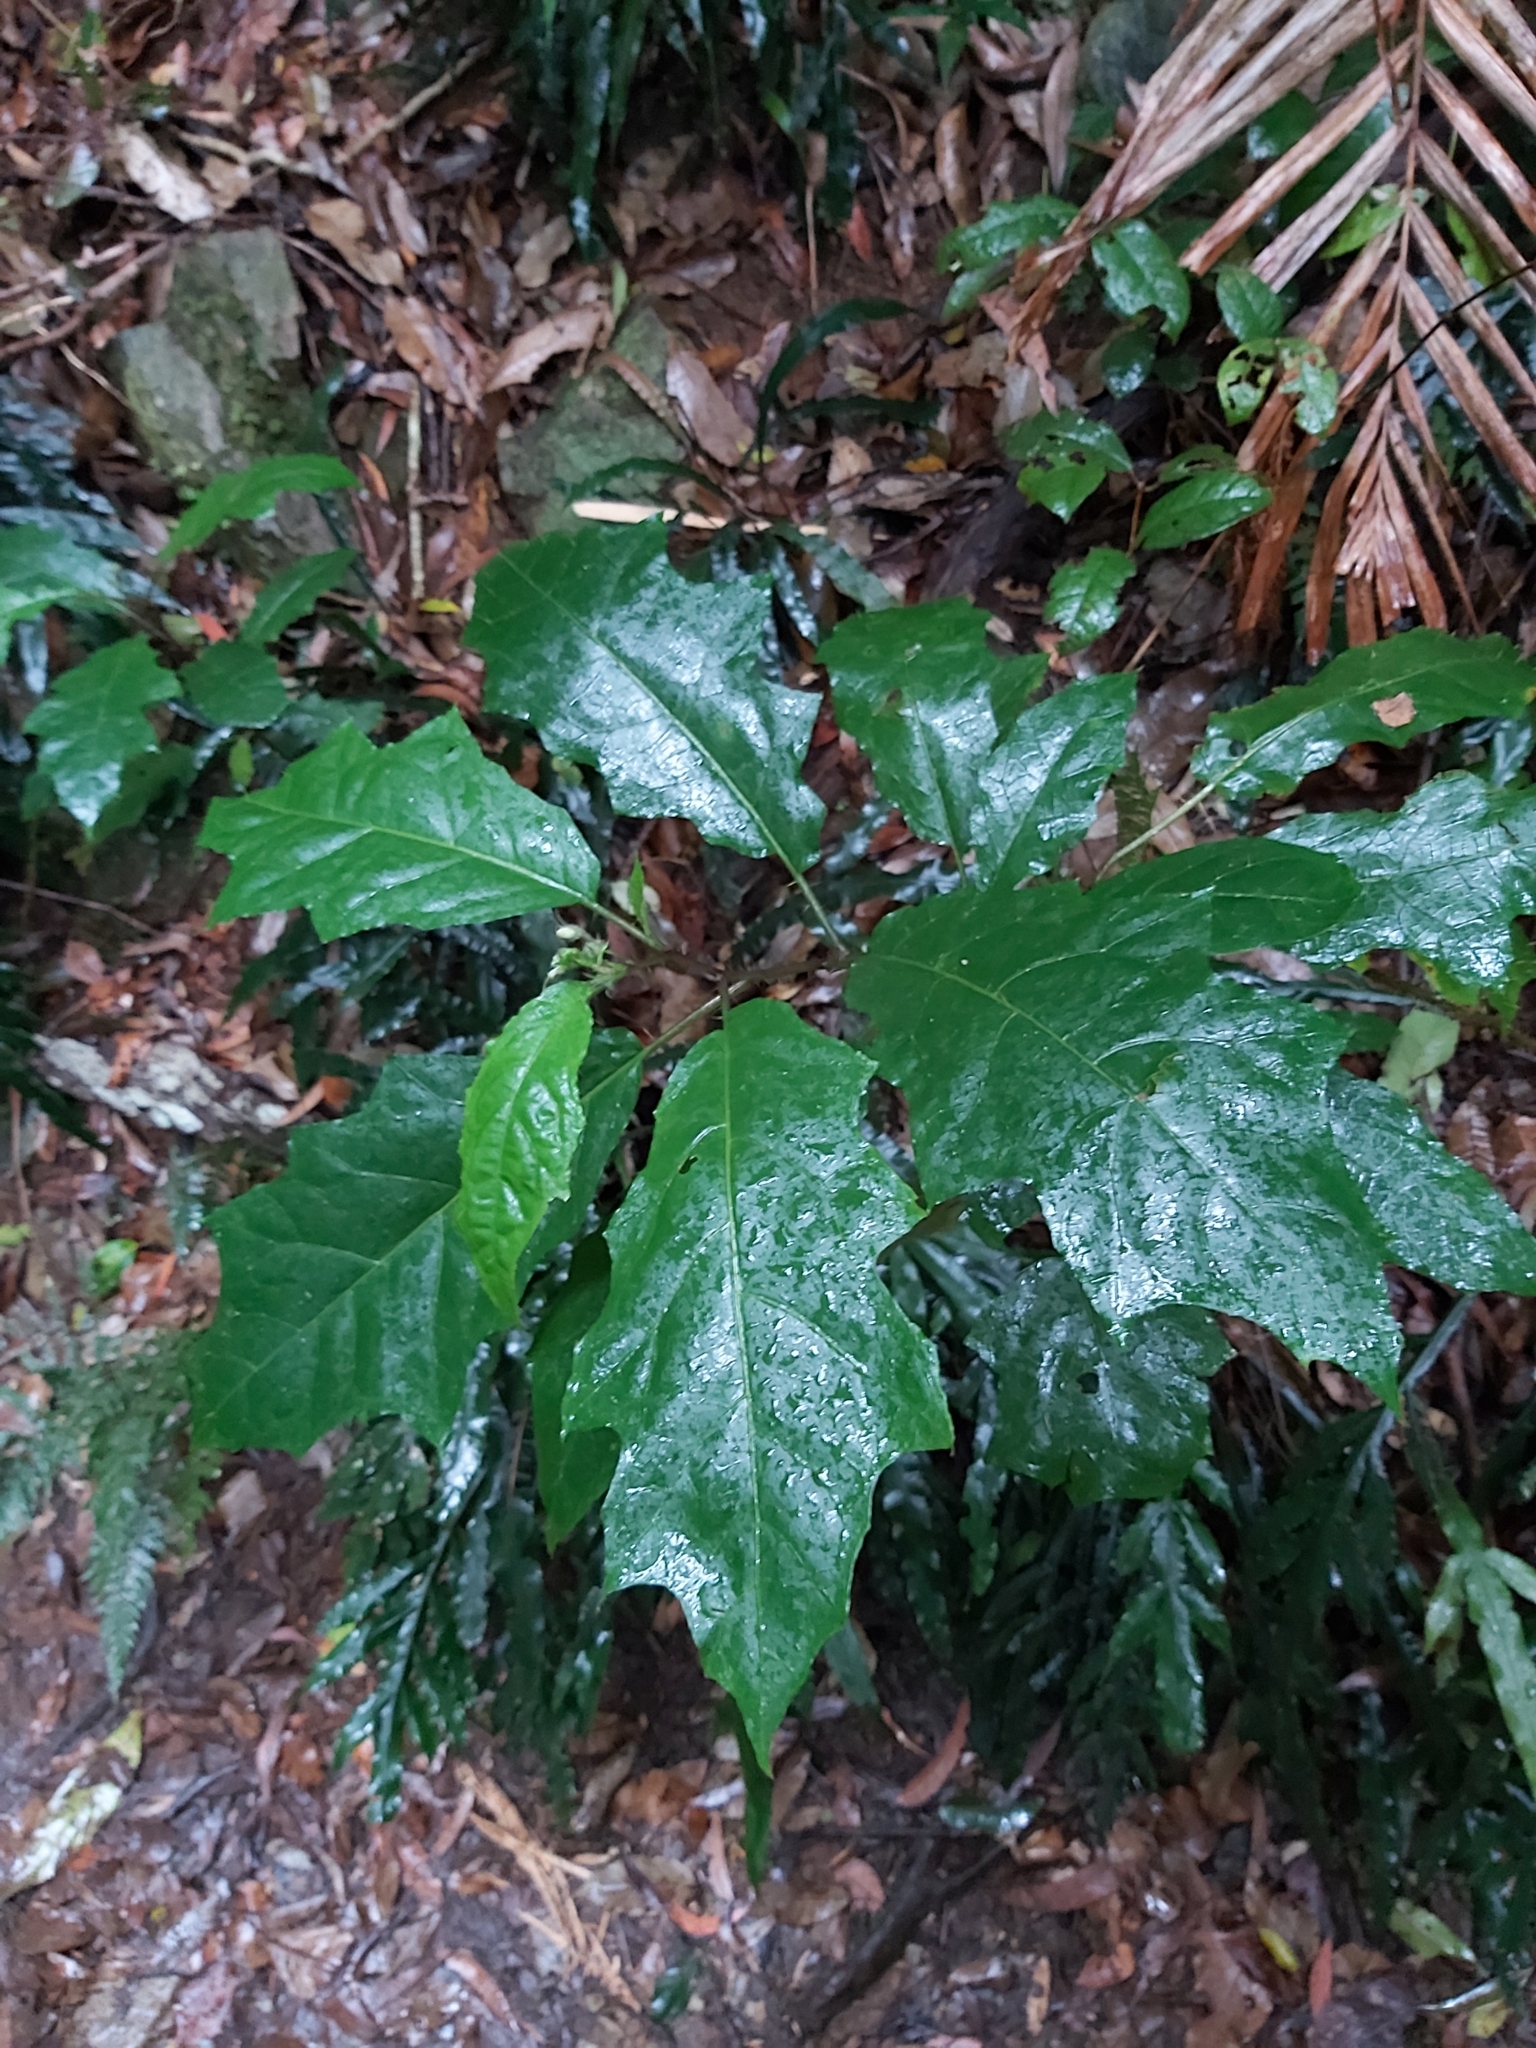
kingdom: Plantae
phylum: Tracheophyta
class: Magnoliopsida
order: Solanales
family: Solanaceae
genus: Solanum
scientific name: Solanum inaequilaterum
